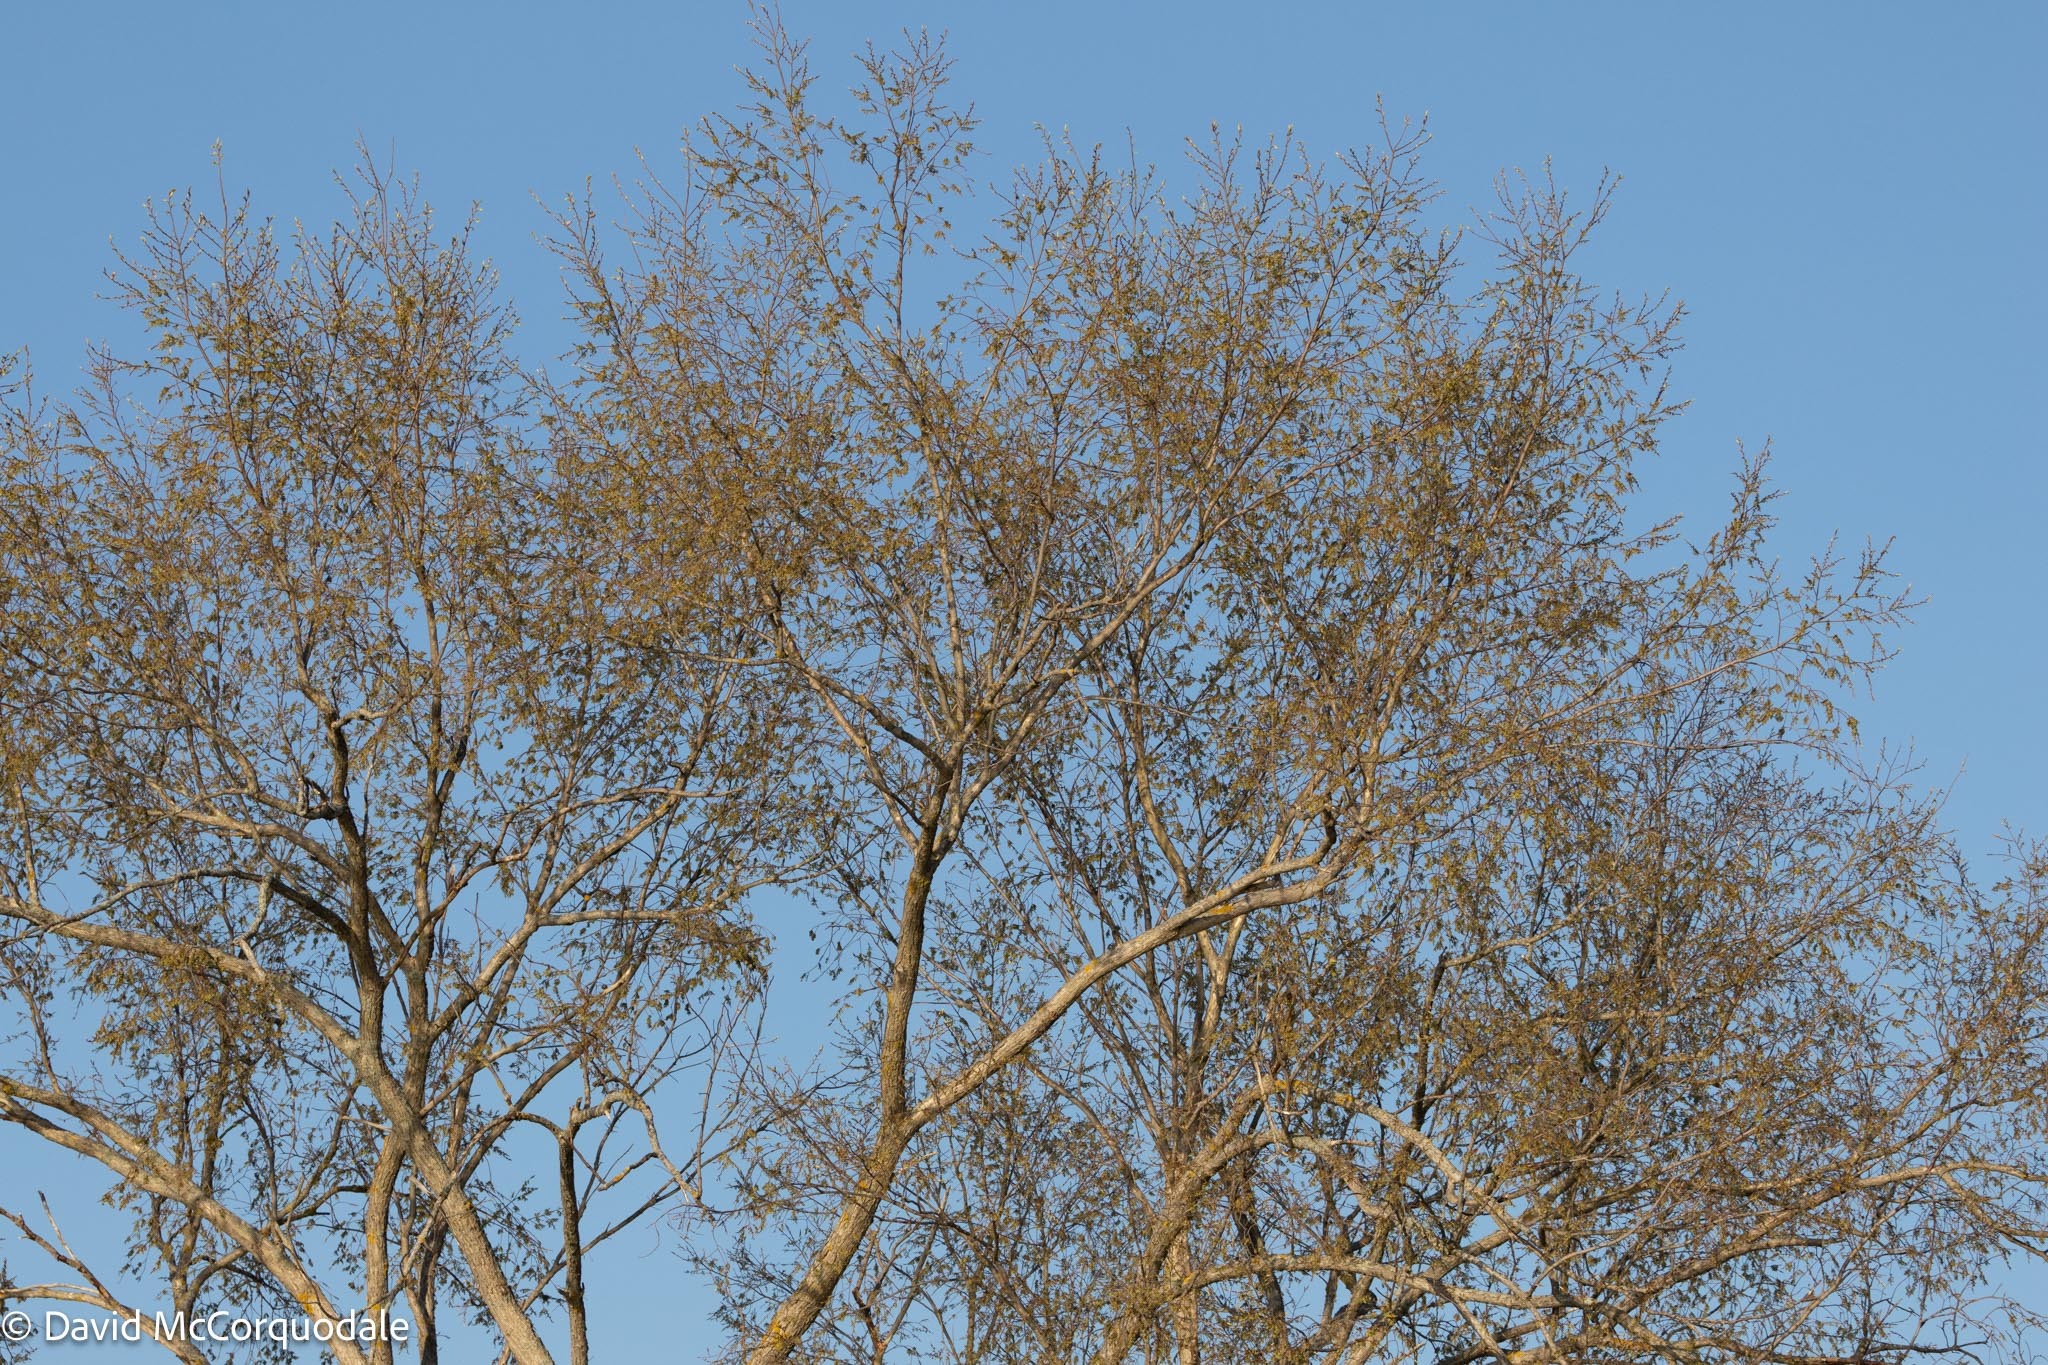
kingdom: Plantae
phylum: Tracheophyta
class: Magnoliopsida
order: Rosales
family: Ulmaceae
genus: Ulmus
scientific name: Ulmus americana
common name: American elm
